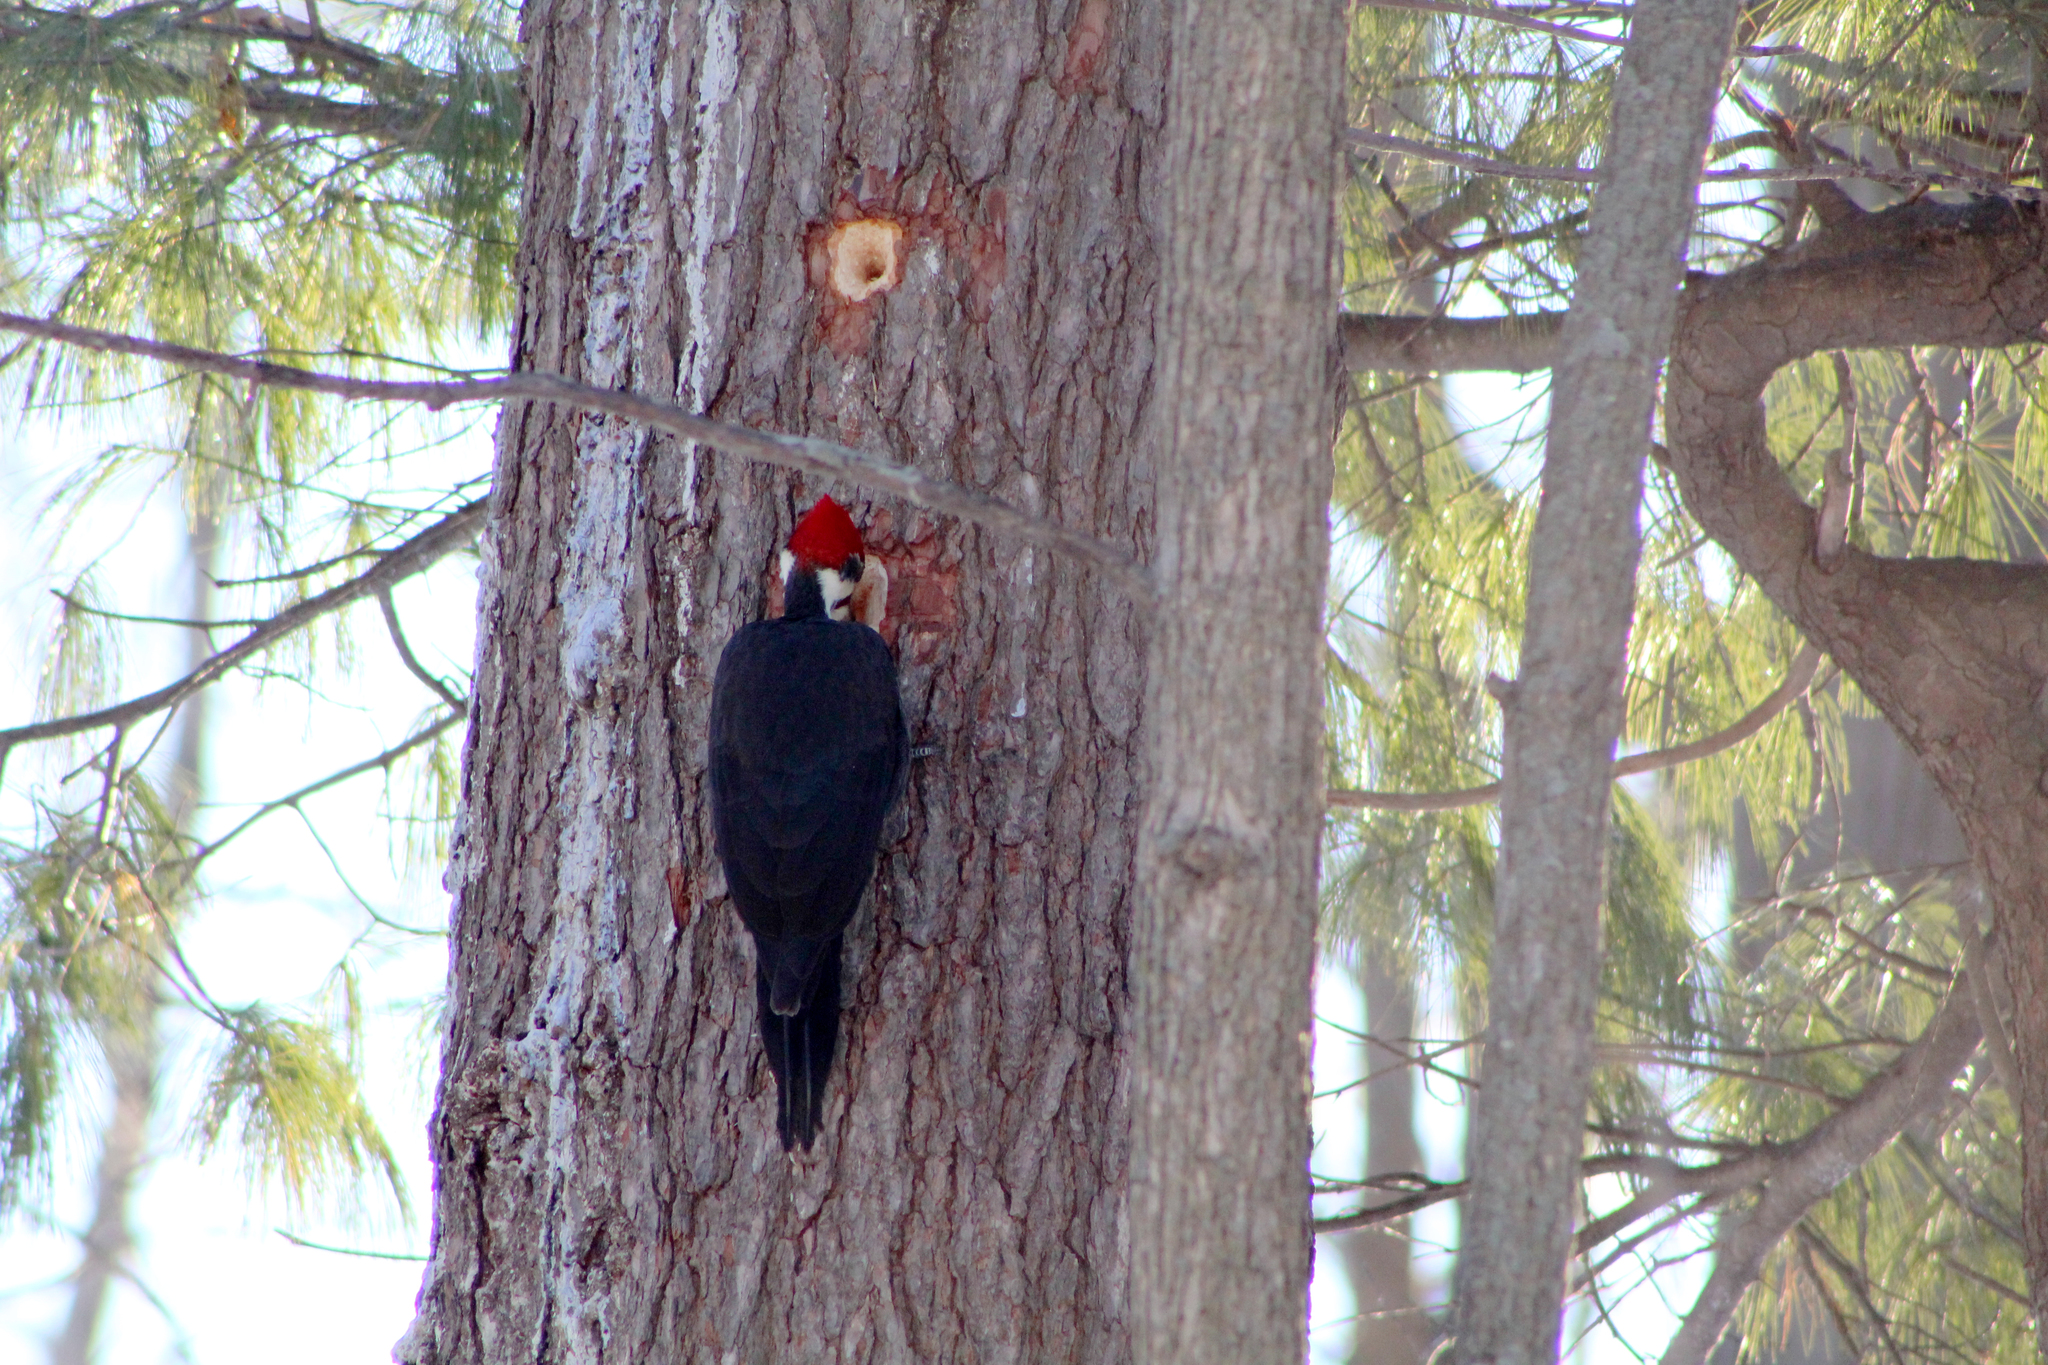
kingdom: Animalia
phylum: Chordata
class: Aves
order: Piciformes
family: Picidae
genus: Dryocopus
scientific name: Dryocopus pileatus
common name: Pileated woodpecker
